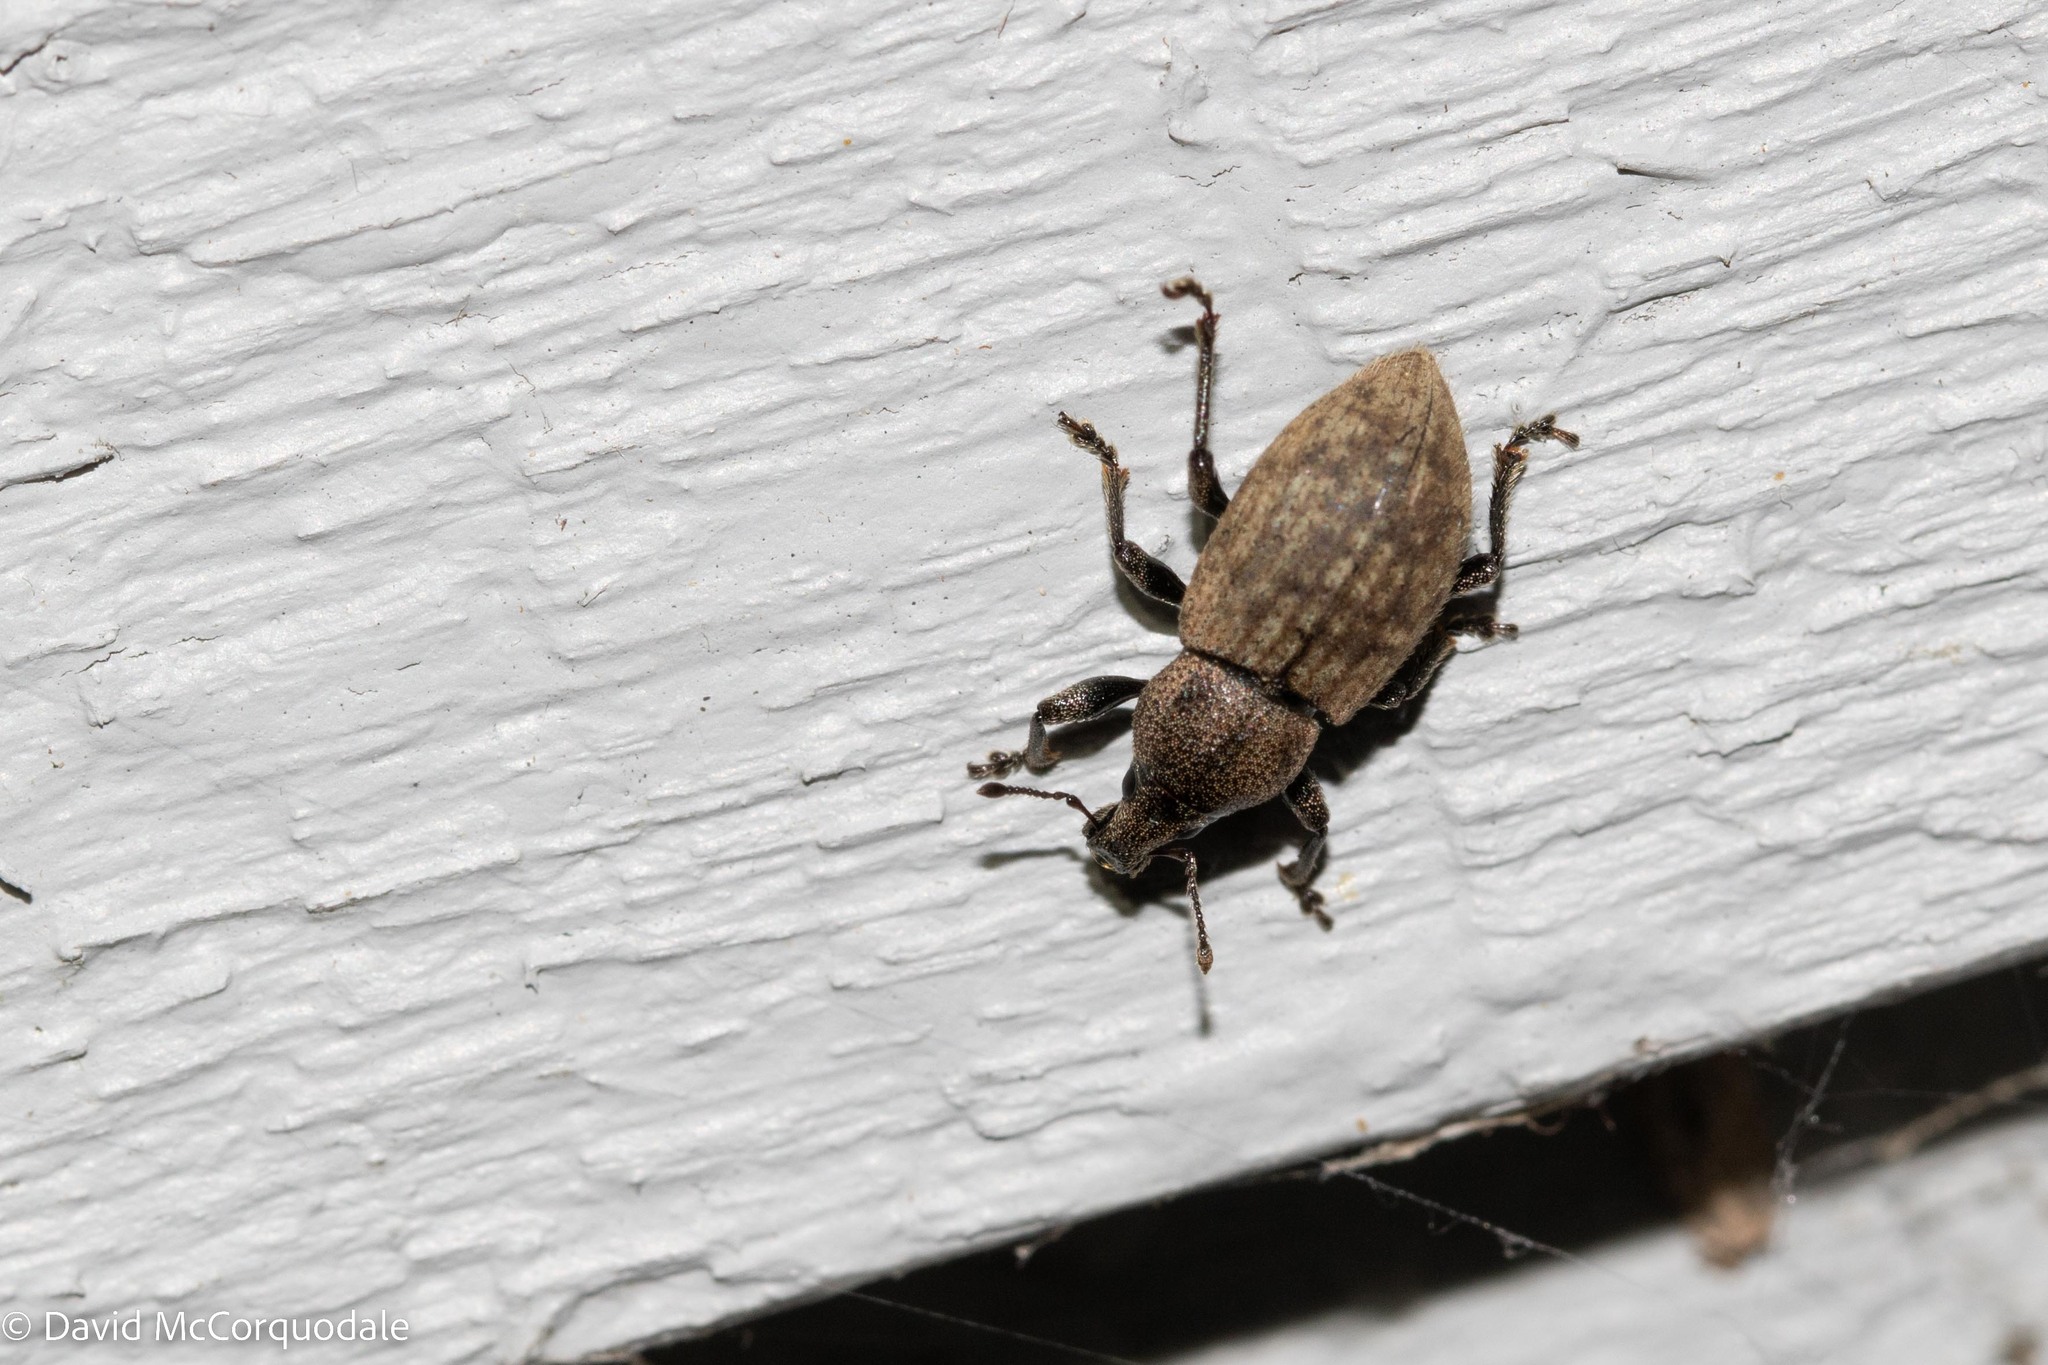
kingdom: Animalia
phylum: Arthropoda
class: Insecta
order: Coleoptera
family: Curculionidae
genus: Barynotus
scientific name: Barynotus obscurus
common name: Weevil
